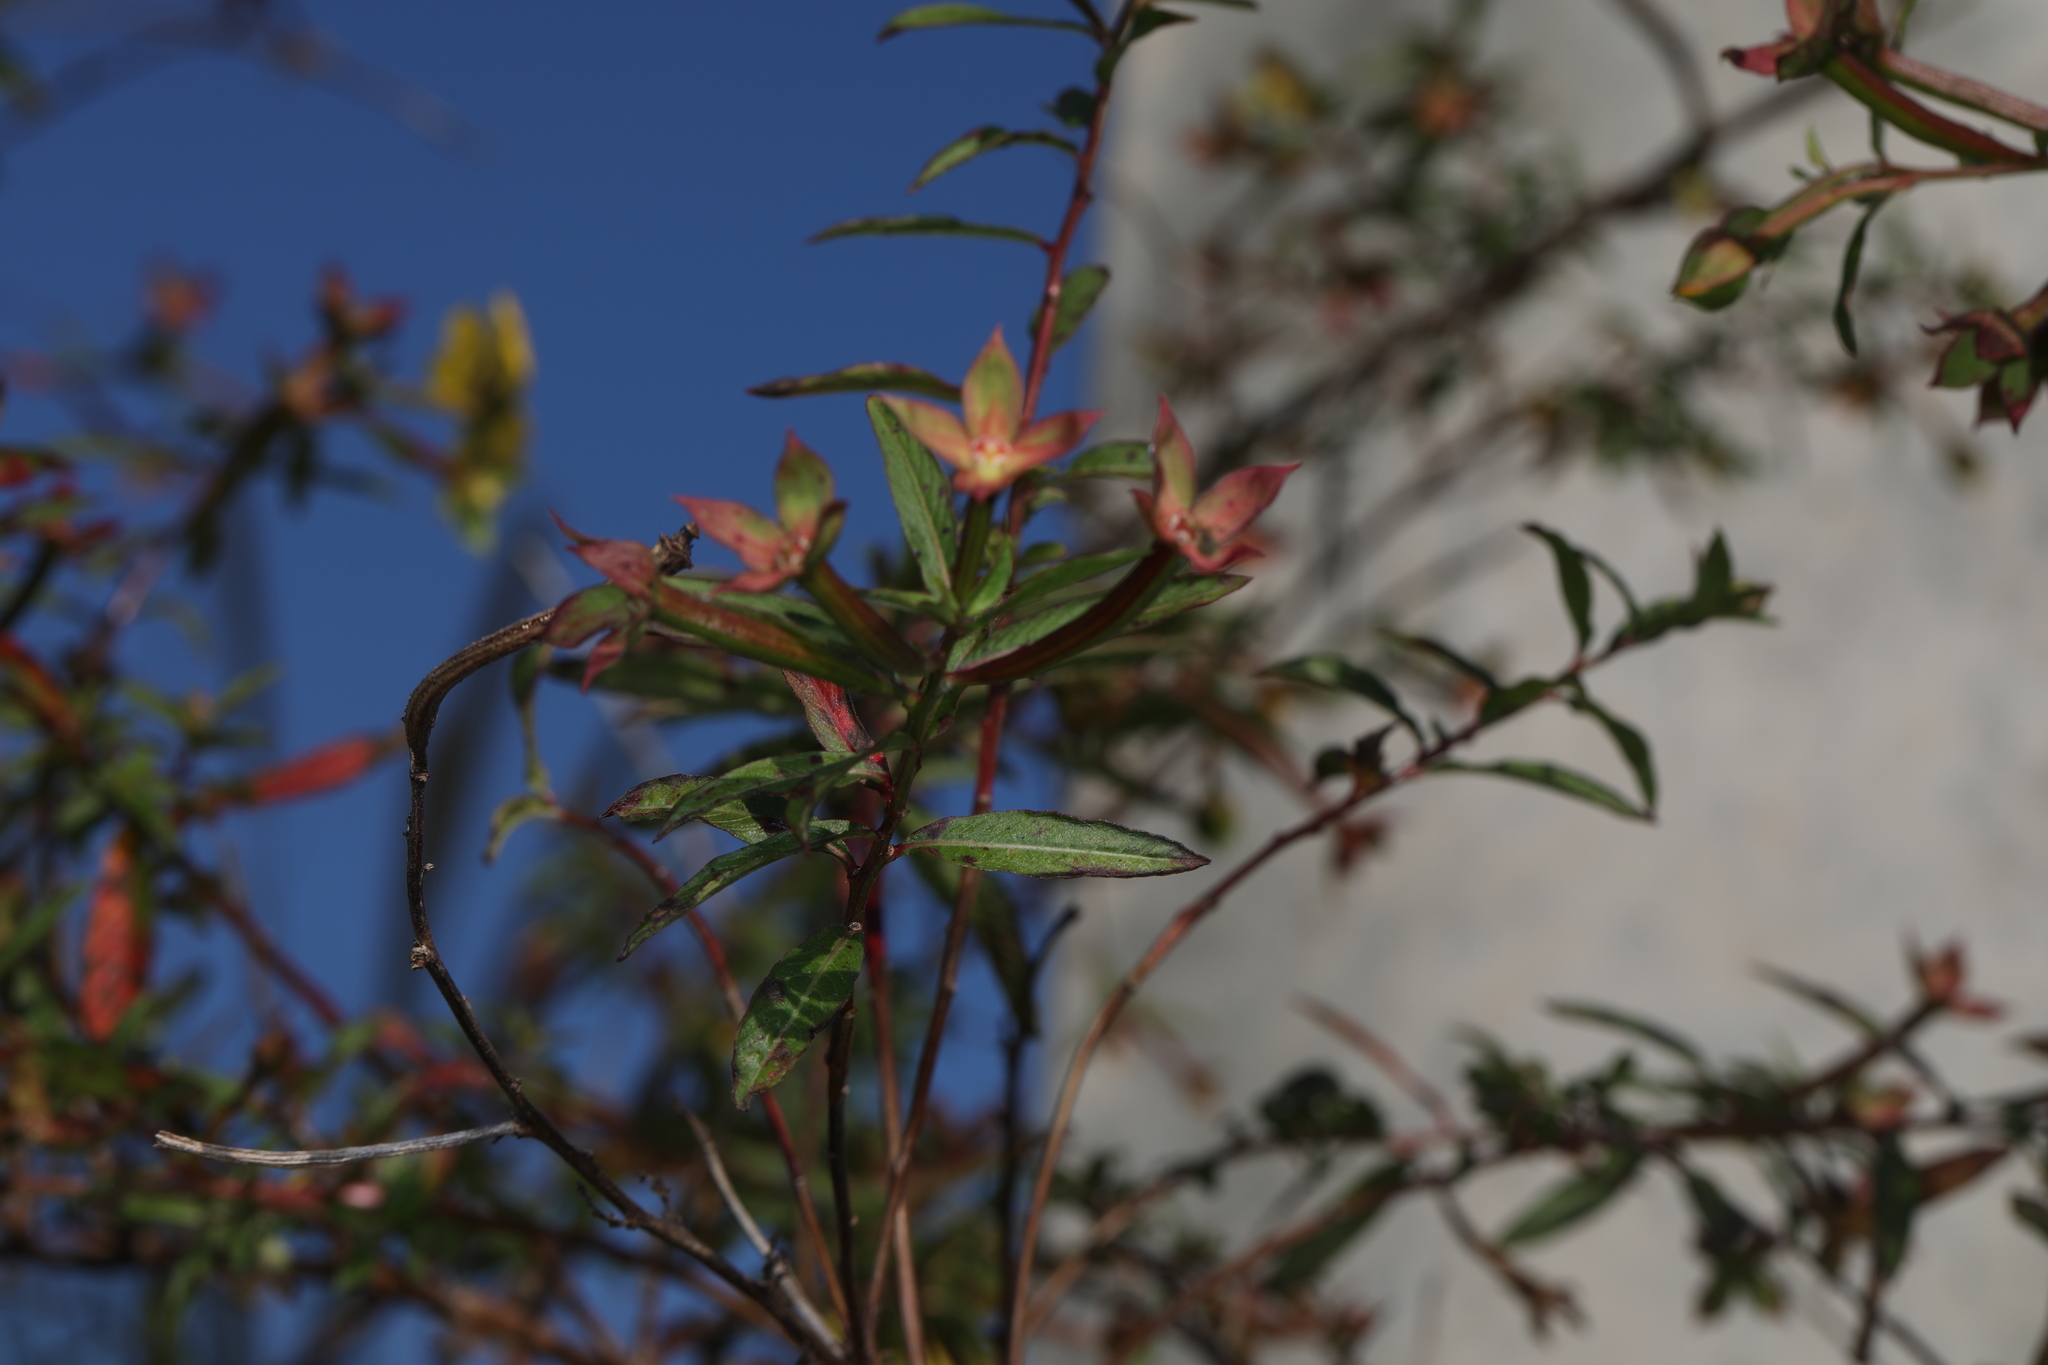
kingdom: Plantae
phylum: Tracheophyta
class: Magnoliopsida
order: Myrtales
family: Onagraceae
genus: Ludwigia
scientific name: Ludwigia octovalvis
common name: Water-primrose
